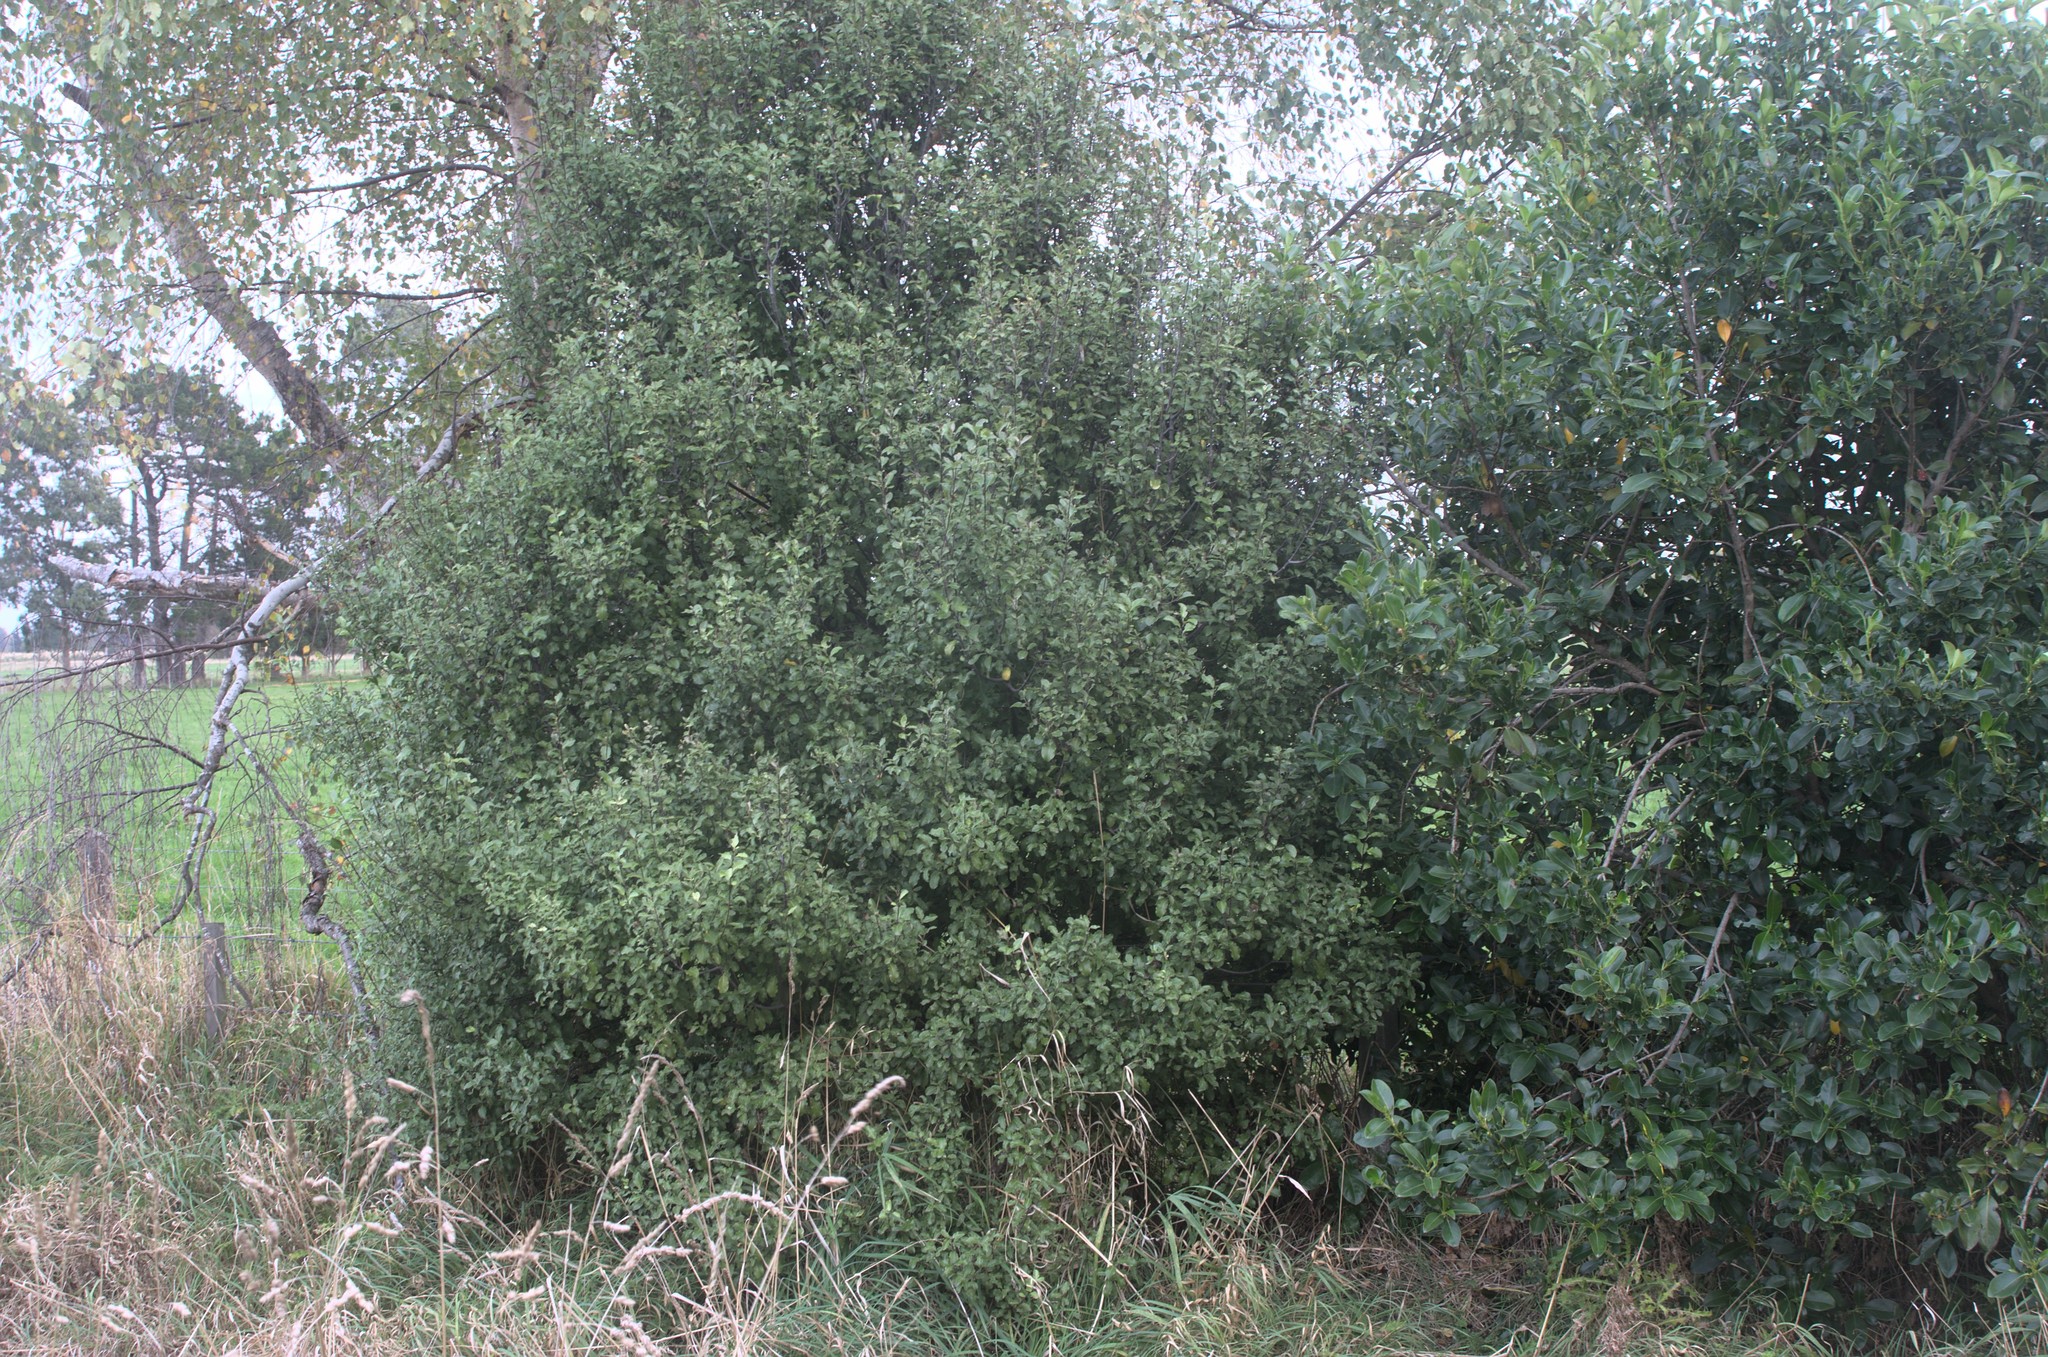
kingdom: Plantae
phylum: Tracheophyta
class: Magnoliopsida
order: Apiales
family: Pittosporaceae
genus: Pittosporum
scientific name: Pittosporum tenuifolium
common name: Kohuhu
